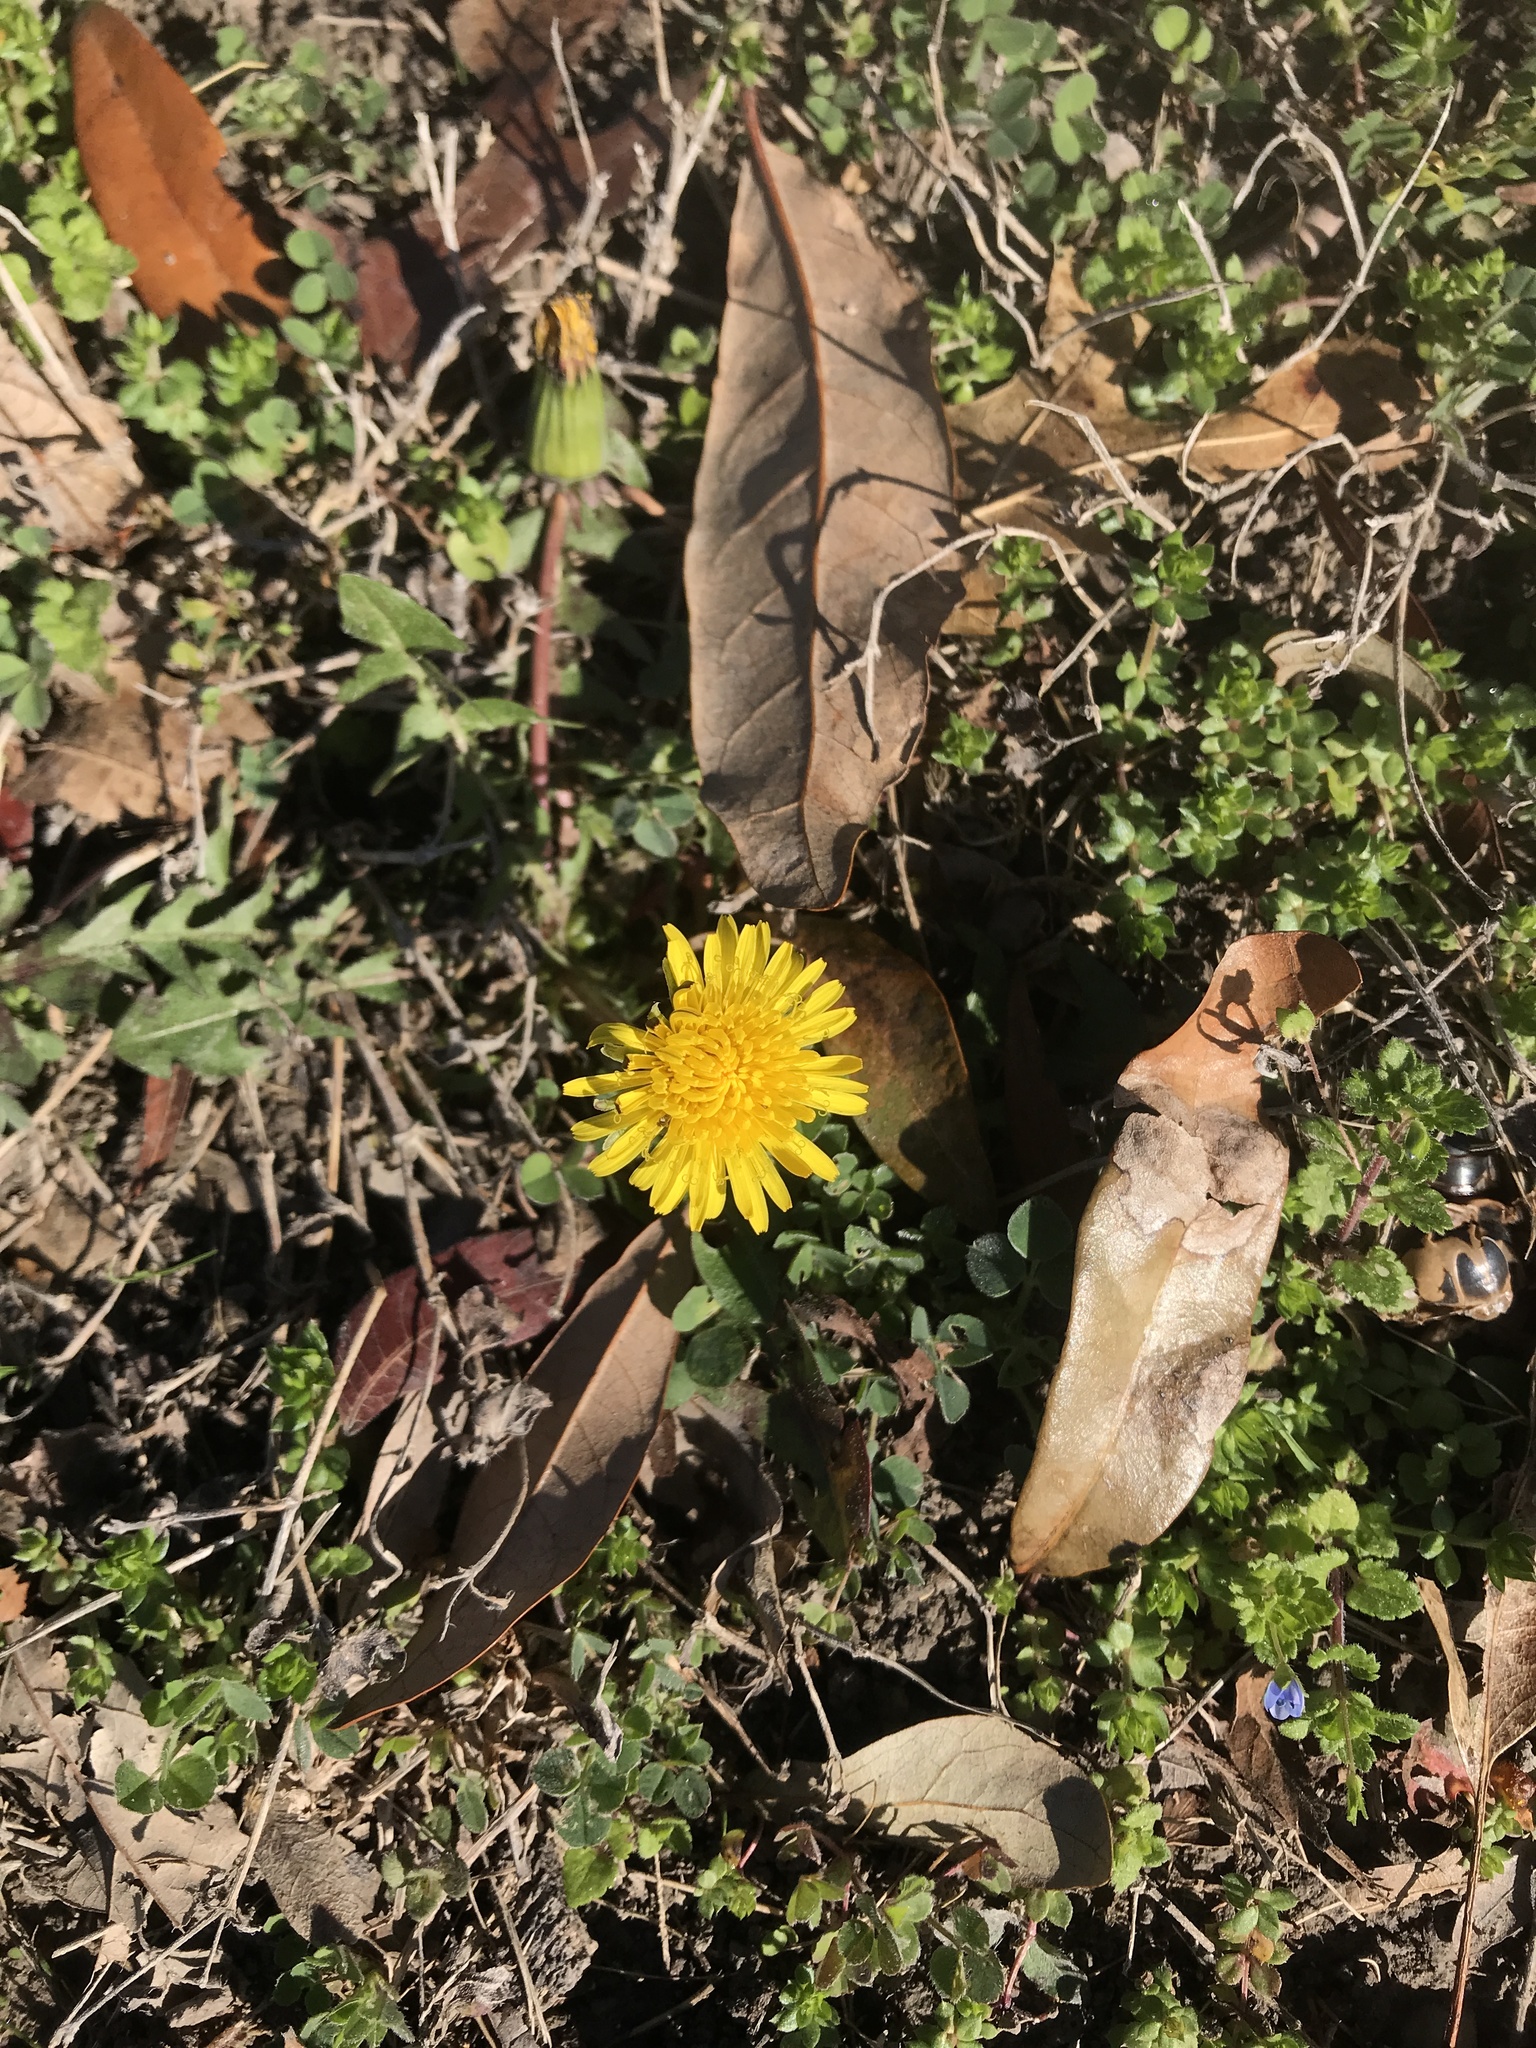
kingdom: Plantae
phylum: Tracheophyta
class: Magnoliopsida
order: Asterales
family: Asteraceae
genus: Taraxacum
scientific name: Taraxacum officinale
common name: Common dandelion
